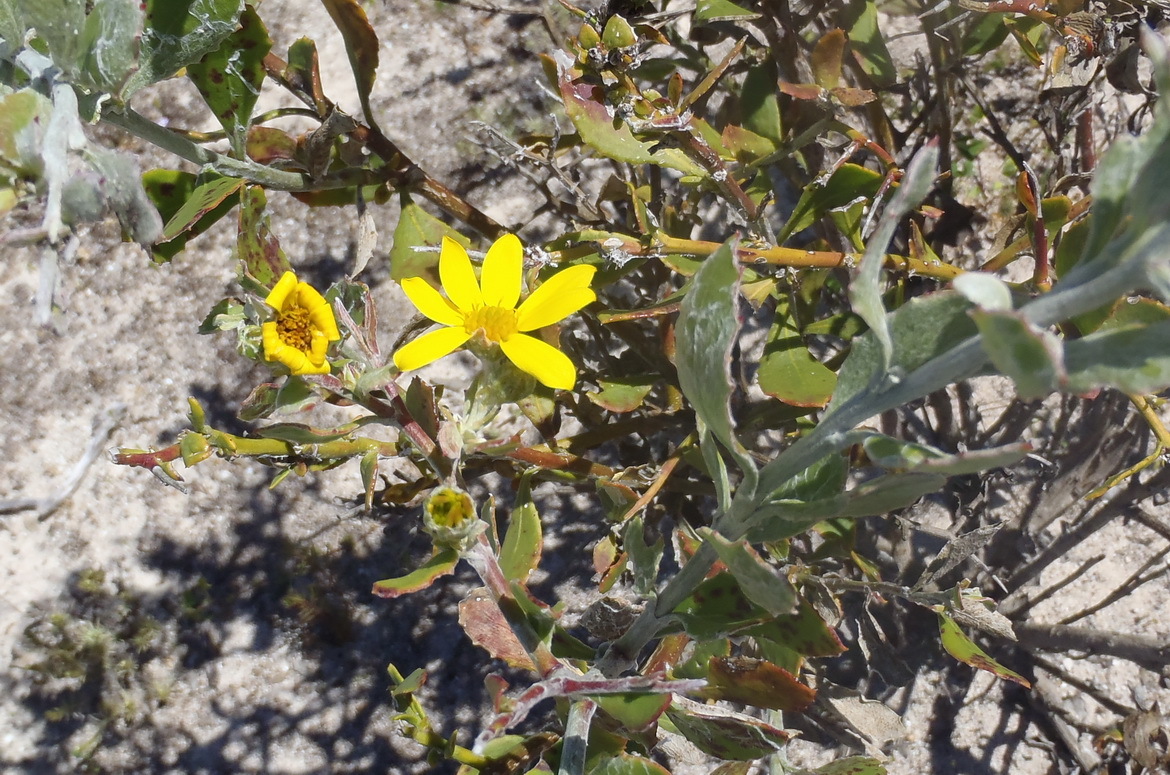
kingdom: Plantae
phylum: Tracheophyta
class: Magnoliopsida
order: Asterales
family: Asteraceae
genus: Osteospermum
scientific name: Osteospermum incanum
